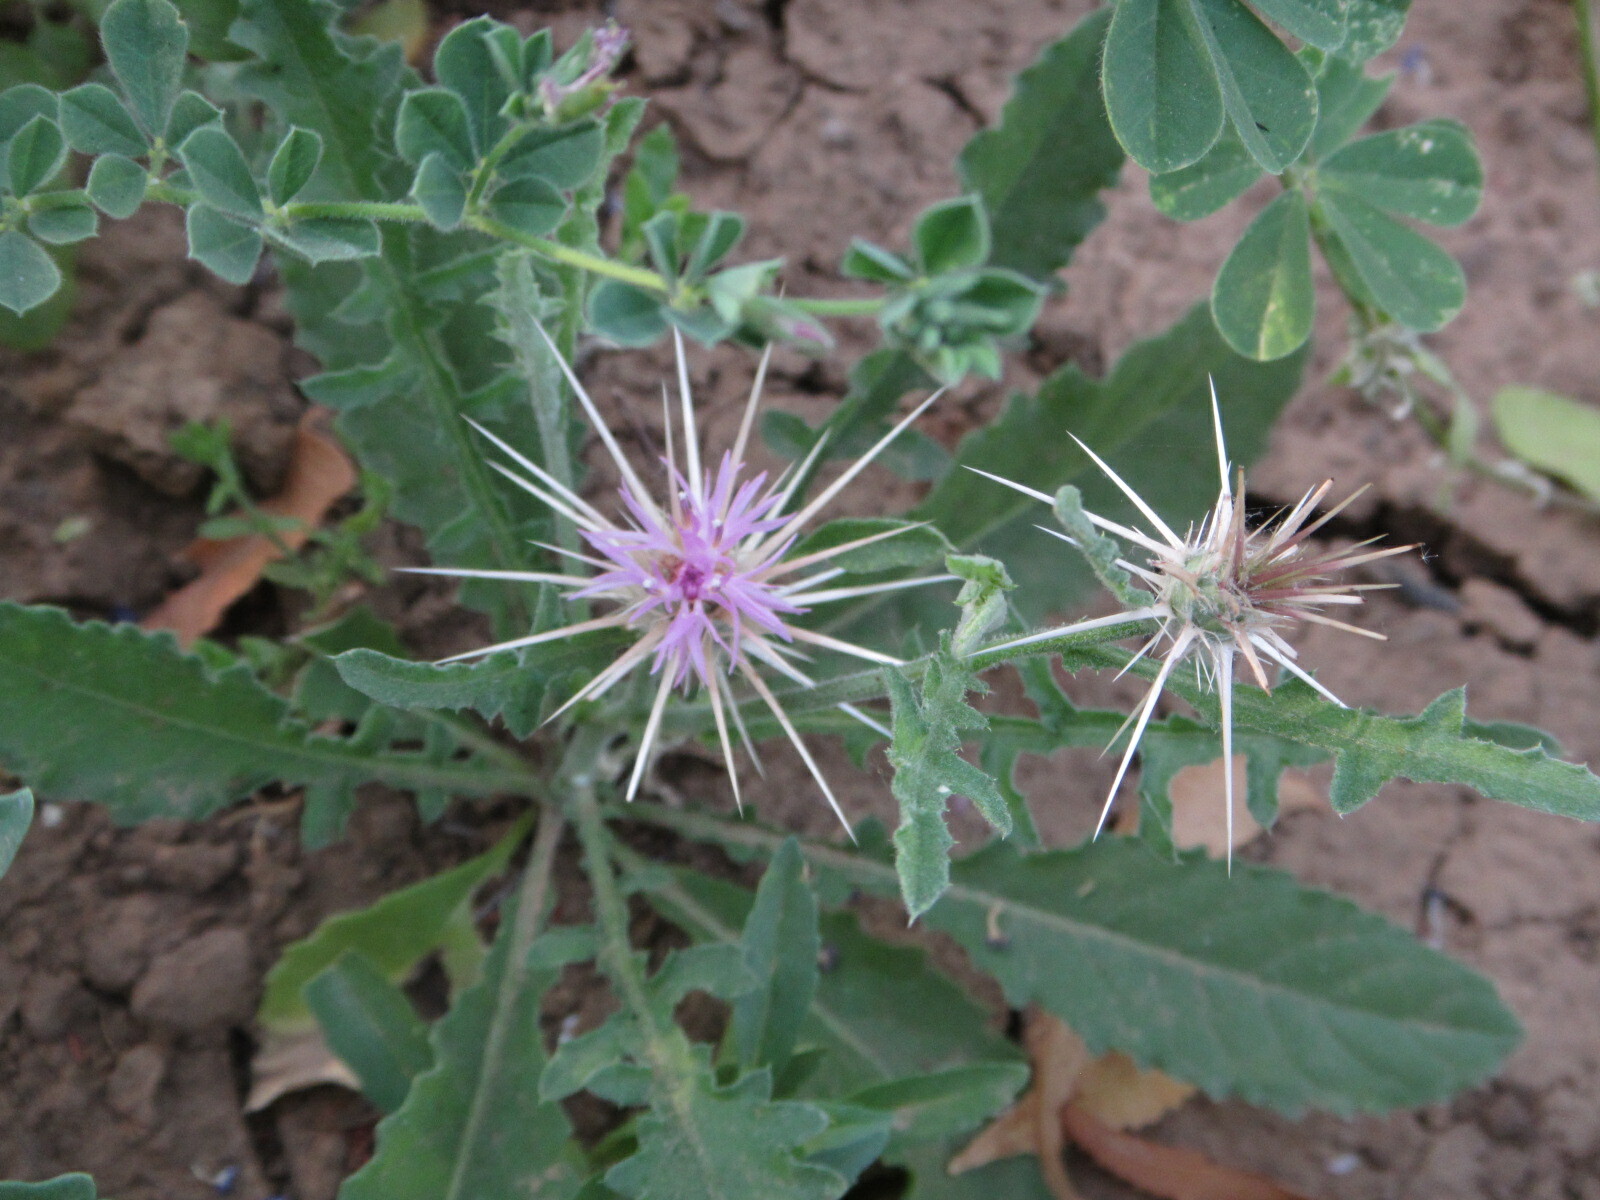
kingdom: Plantae
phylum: Tracheophyta
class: Magnoliopsida
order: Asterales
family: Asteraceae
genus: Centaurea
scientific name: Centaurea perrottettii
